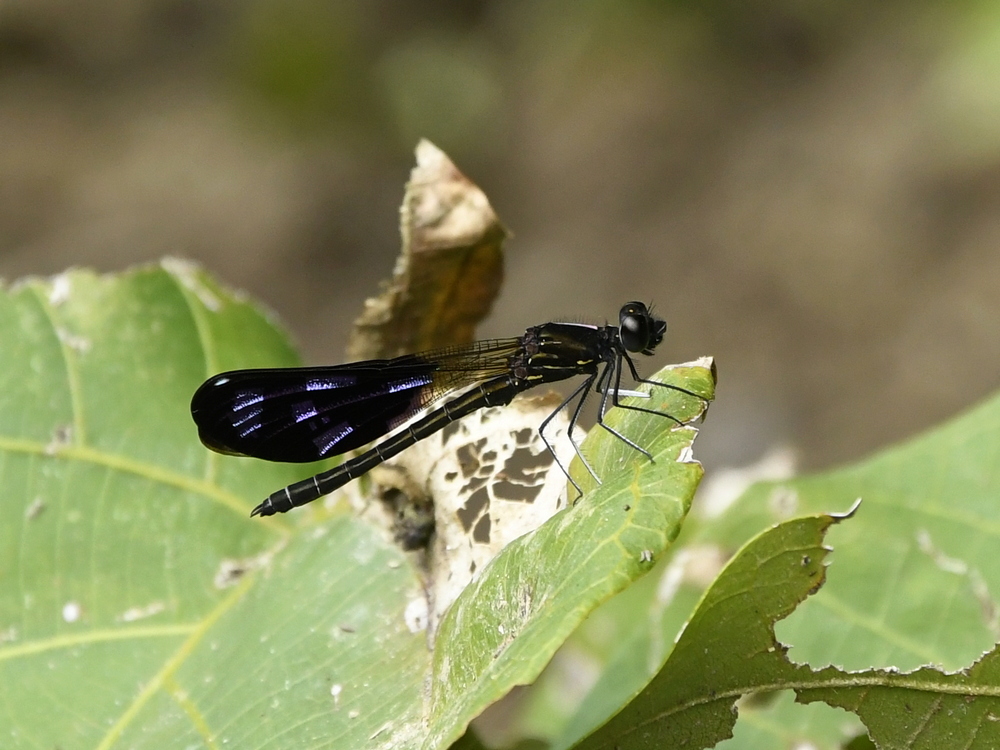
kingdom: Animalia
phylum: Arthropoda
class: Insecta
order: Odonata
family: Chlorocyphidae
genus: Aristocypha
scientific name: Aristocypha fenestrella
